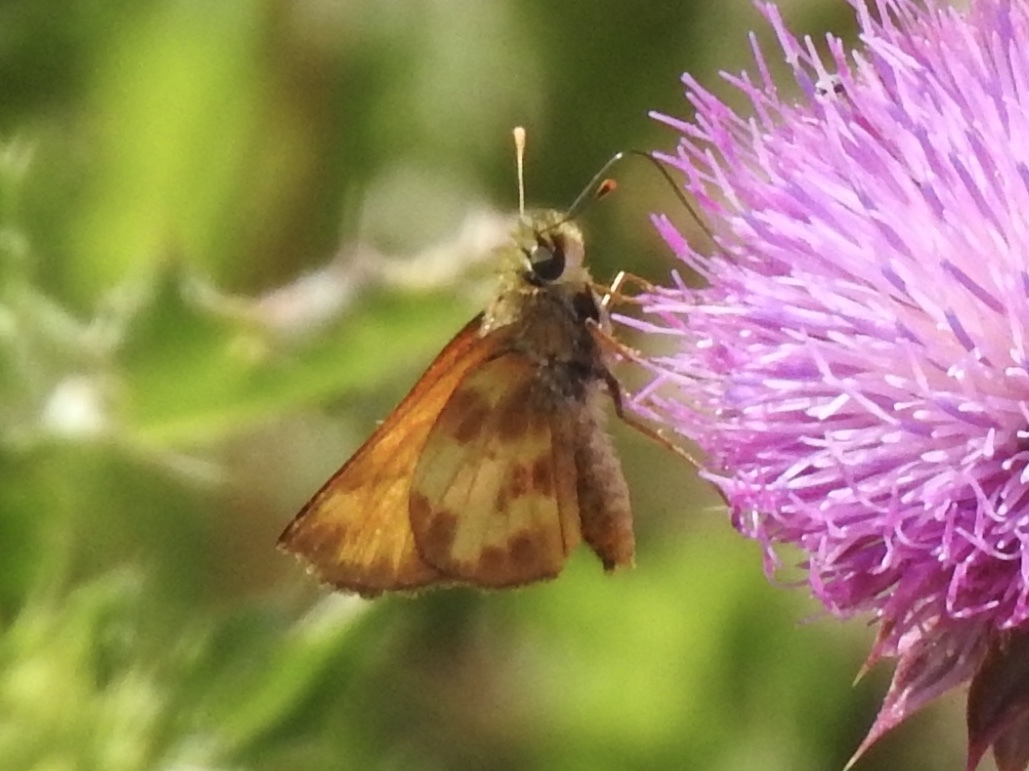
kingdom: Animalia
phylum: Arthropoda
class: Insecta
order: Lepidoptera
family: Hesperiidae
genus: Lon
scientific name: Lon taxiles
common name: Taxiles skipper
